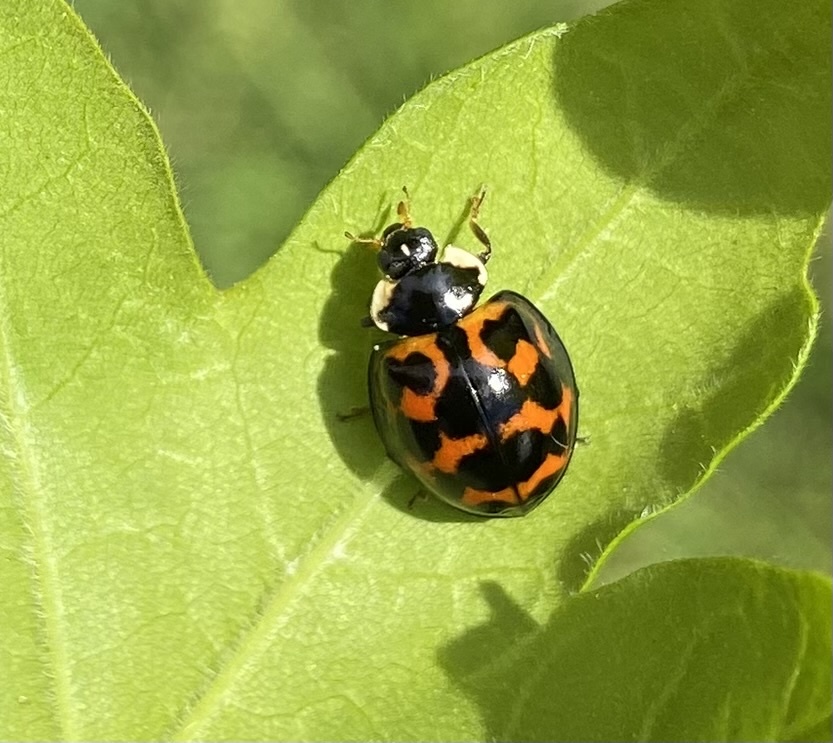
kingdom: Animalia
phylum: Arthropoda
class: Insecta
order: Coleoptera
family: Coccinellidae
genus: Harmonia
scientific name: Harmonia axyridis
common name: Harlequin ladybird
